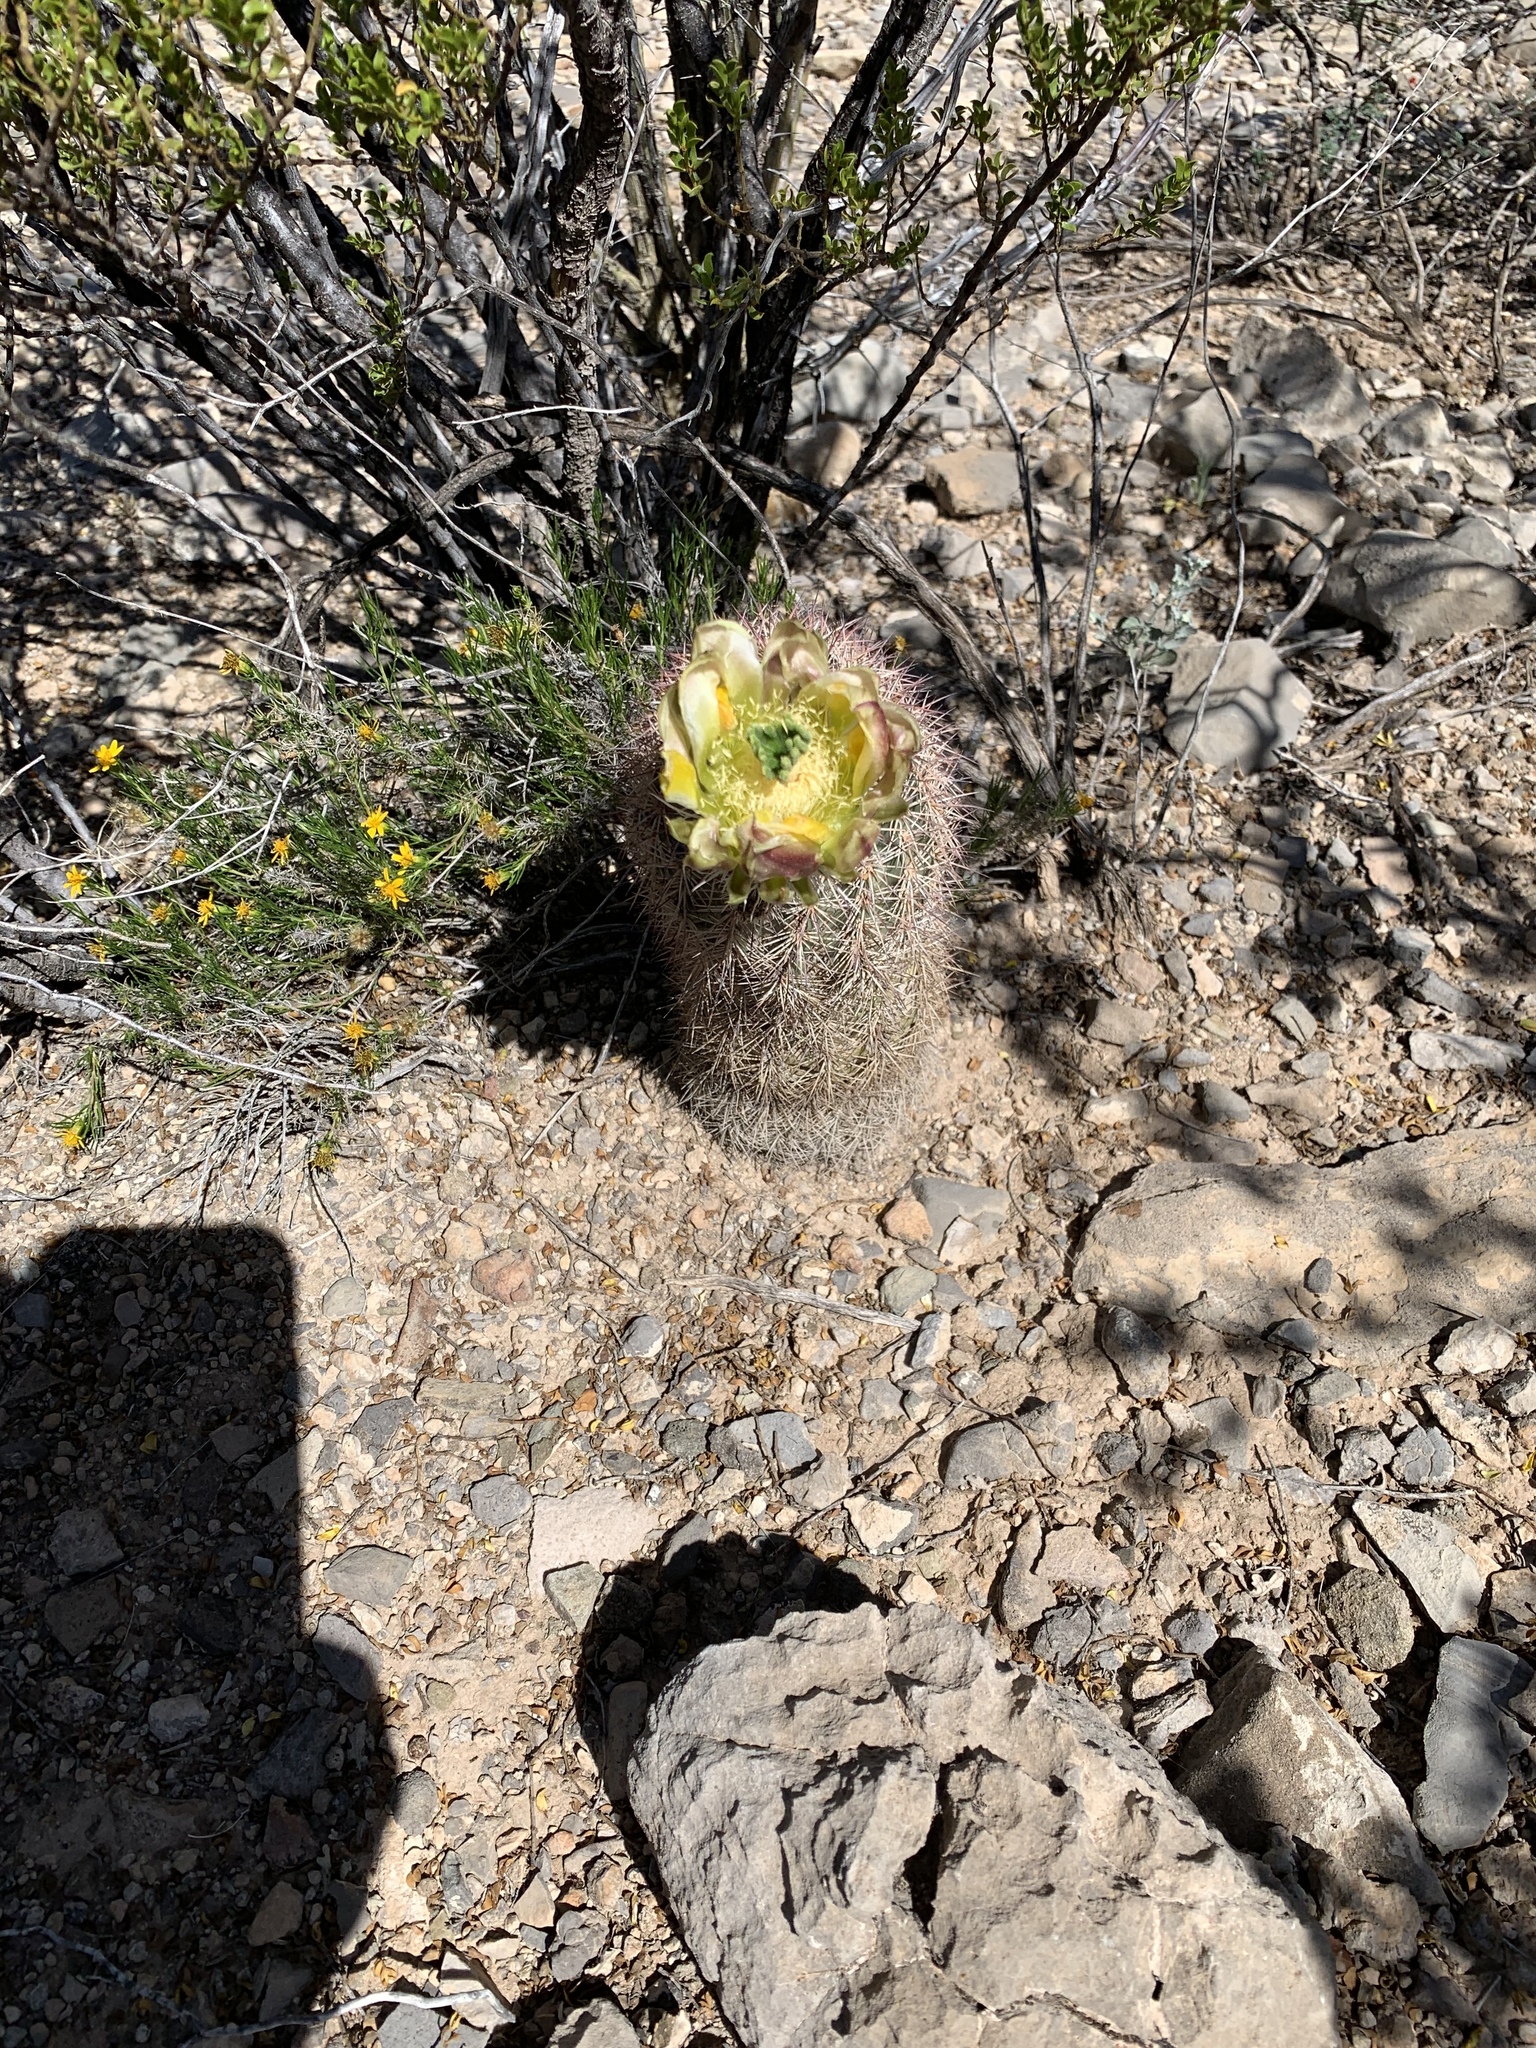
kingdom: Plantae
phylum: Tracheophyta
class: Magnoliopsida
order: Caryophyllales
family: Cactaceae
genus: Echinocereus
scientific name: Echinocereus dasyacanthus
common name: Spiny hedgehog cactus
